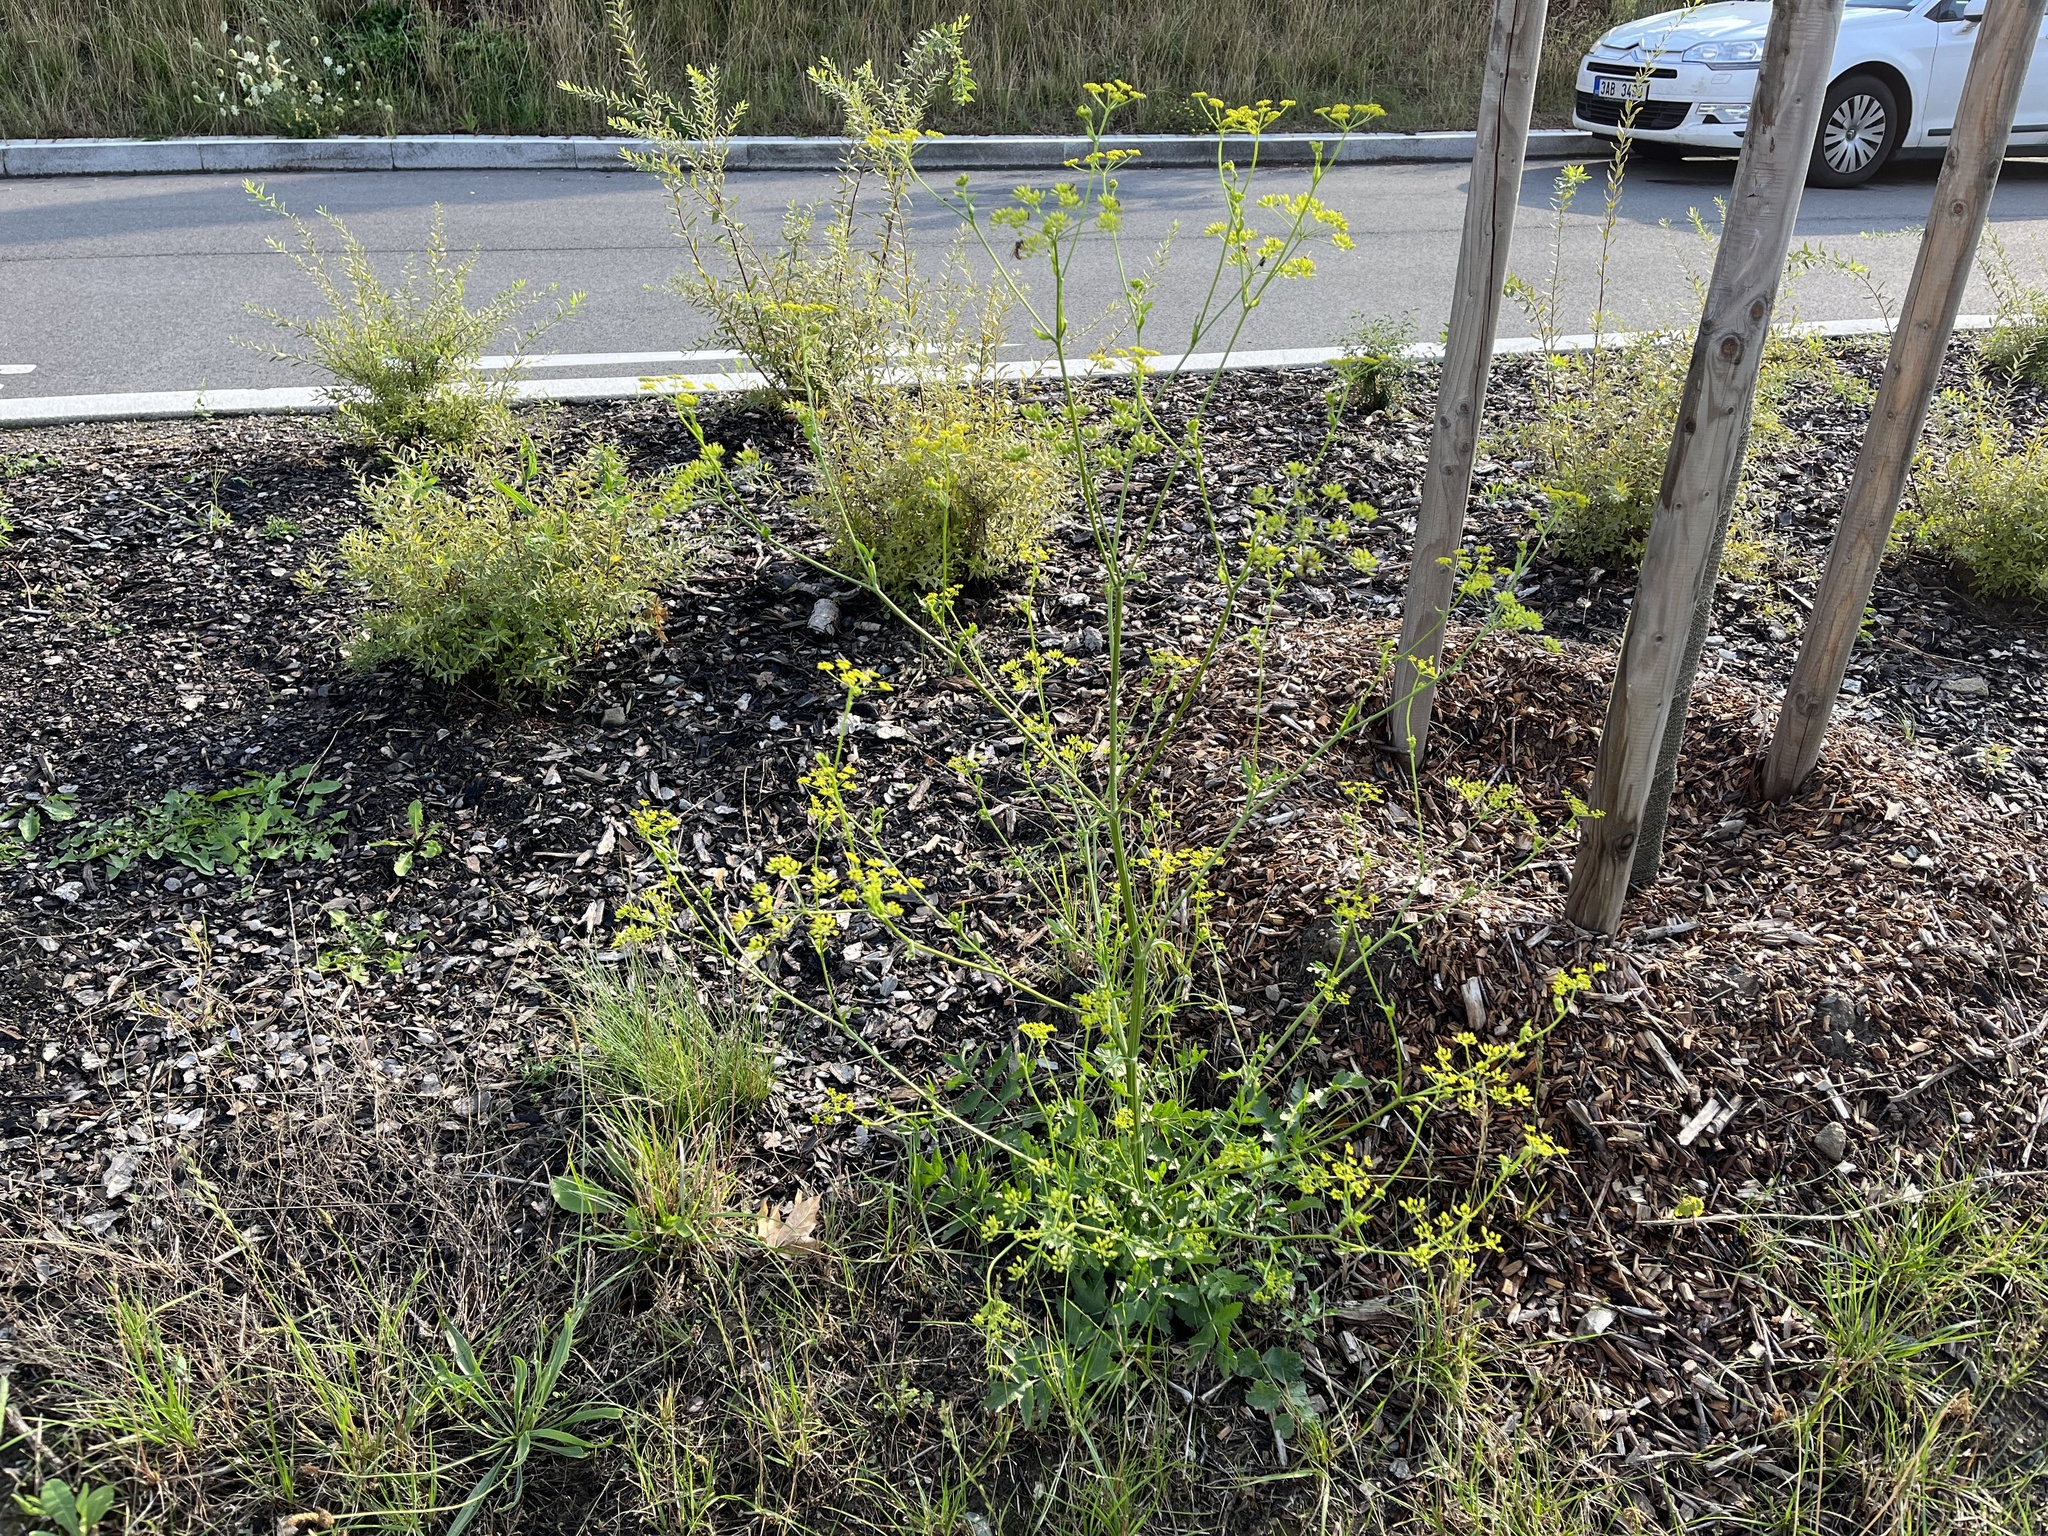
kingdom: Plantae
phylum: Tracheophyta
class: Magnoliopsida
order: Apiales
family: Apiaceae
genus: Pastinaca
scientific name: Pastinaca sativa
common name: Wild parsnip
